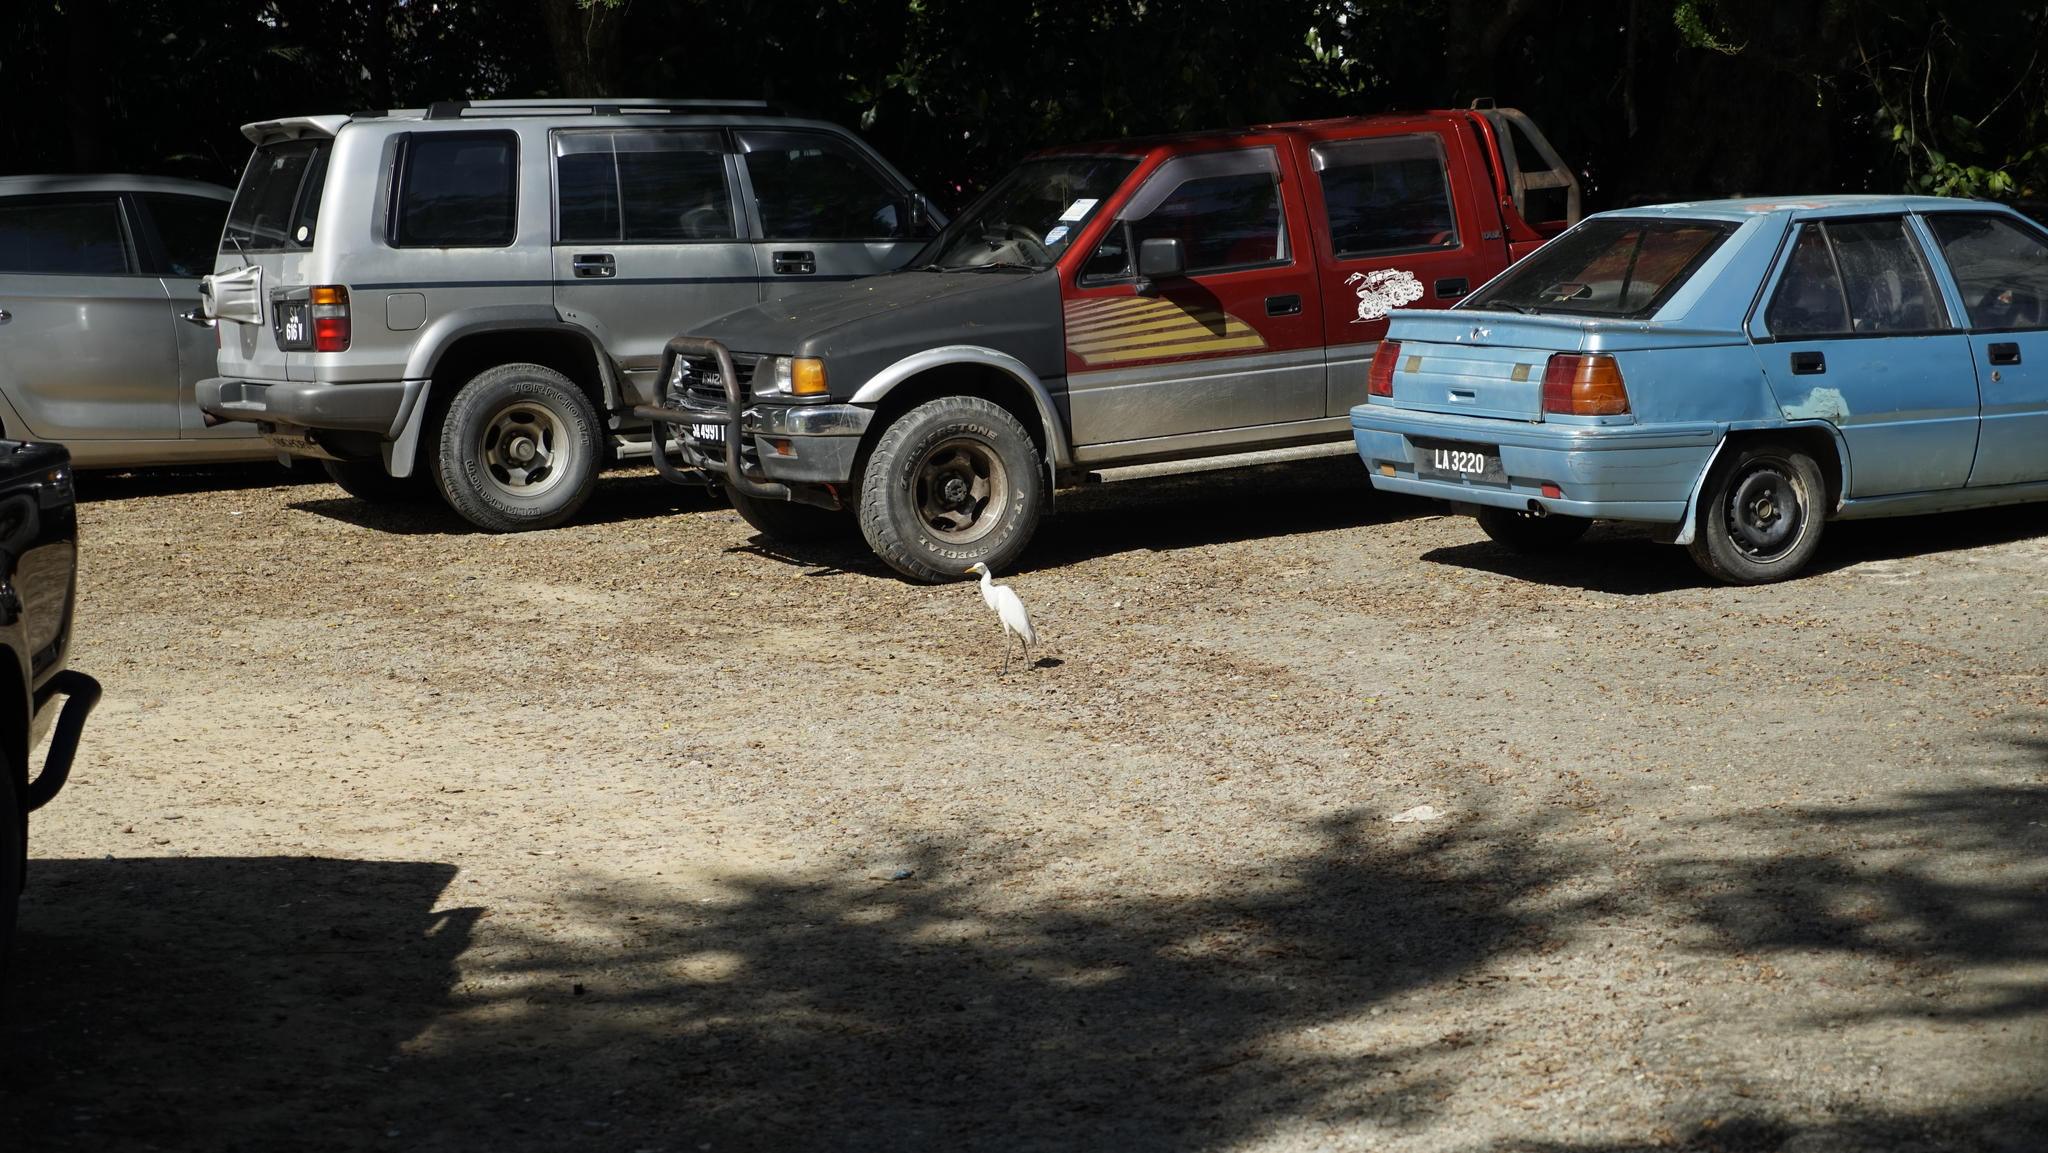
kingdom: Animalia
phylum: Chordata
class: Aves
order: Pelecaniformes
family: Ardeidae
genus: Bubulcus
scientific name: Bubulcus coromandus
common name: Eastern cattle egret
